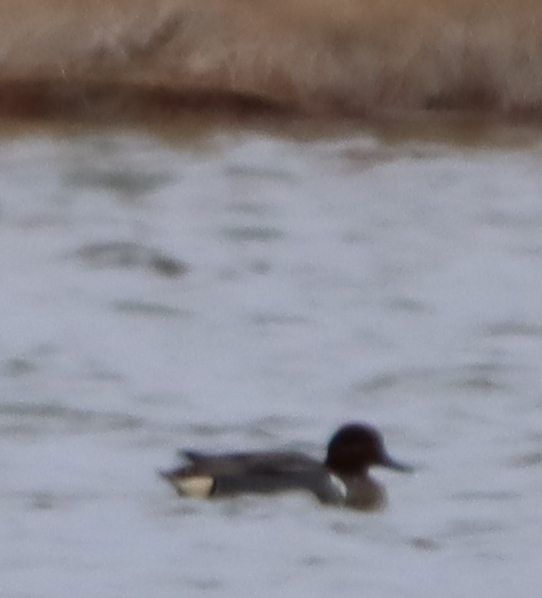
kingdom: Animalia
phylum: Chordata
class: Aves
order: Anseriformes
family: Anatidae
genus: Anas
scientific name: Anas crecca
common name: Eurasian teal
